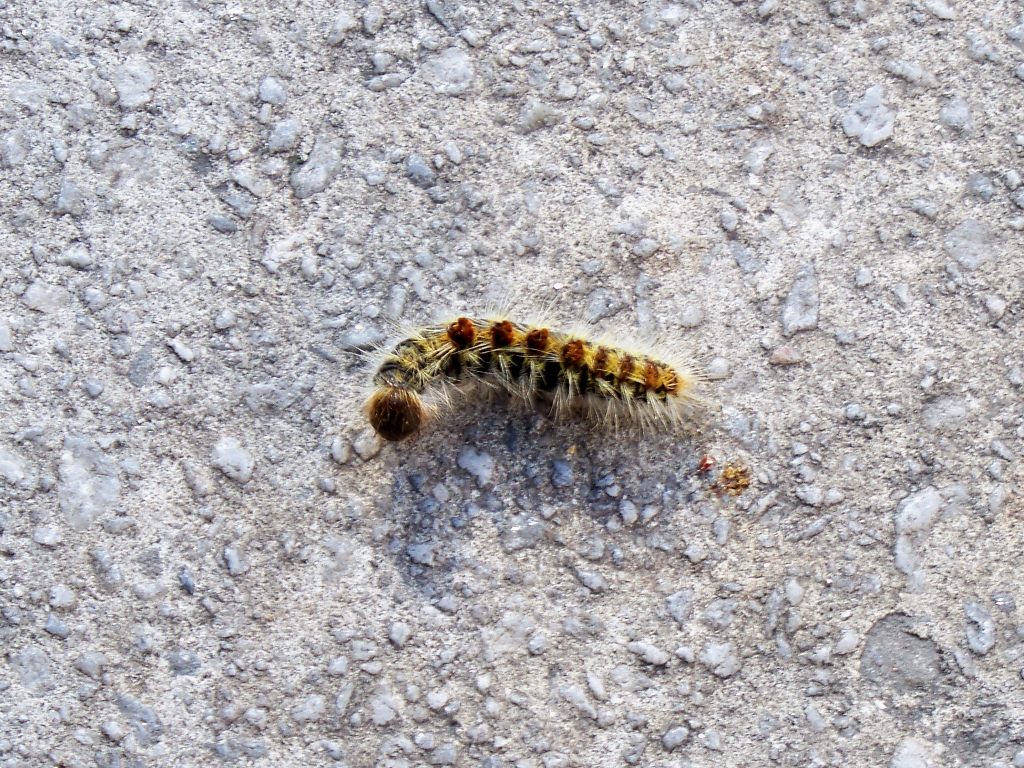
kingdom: Animalia
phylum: Arthropoda
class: Insecta
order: Lepidoptera
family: Notodontidae
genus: Thaumetopoea
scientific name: Thaumetopoea pityocampa
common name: Pine processionary
